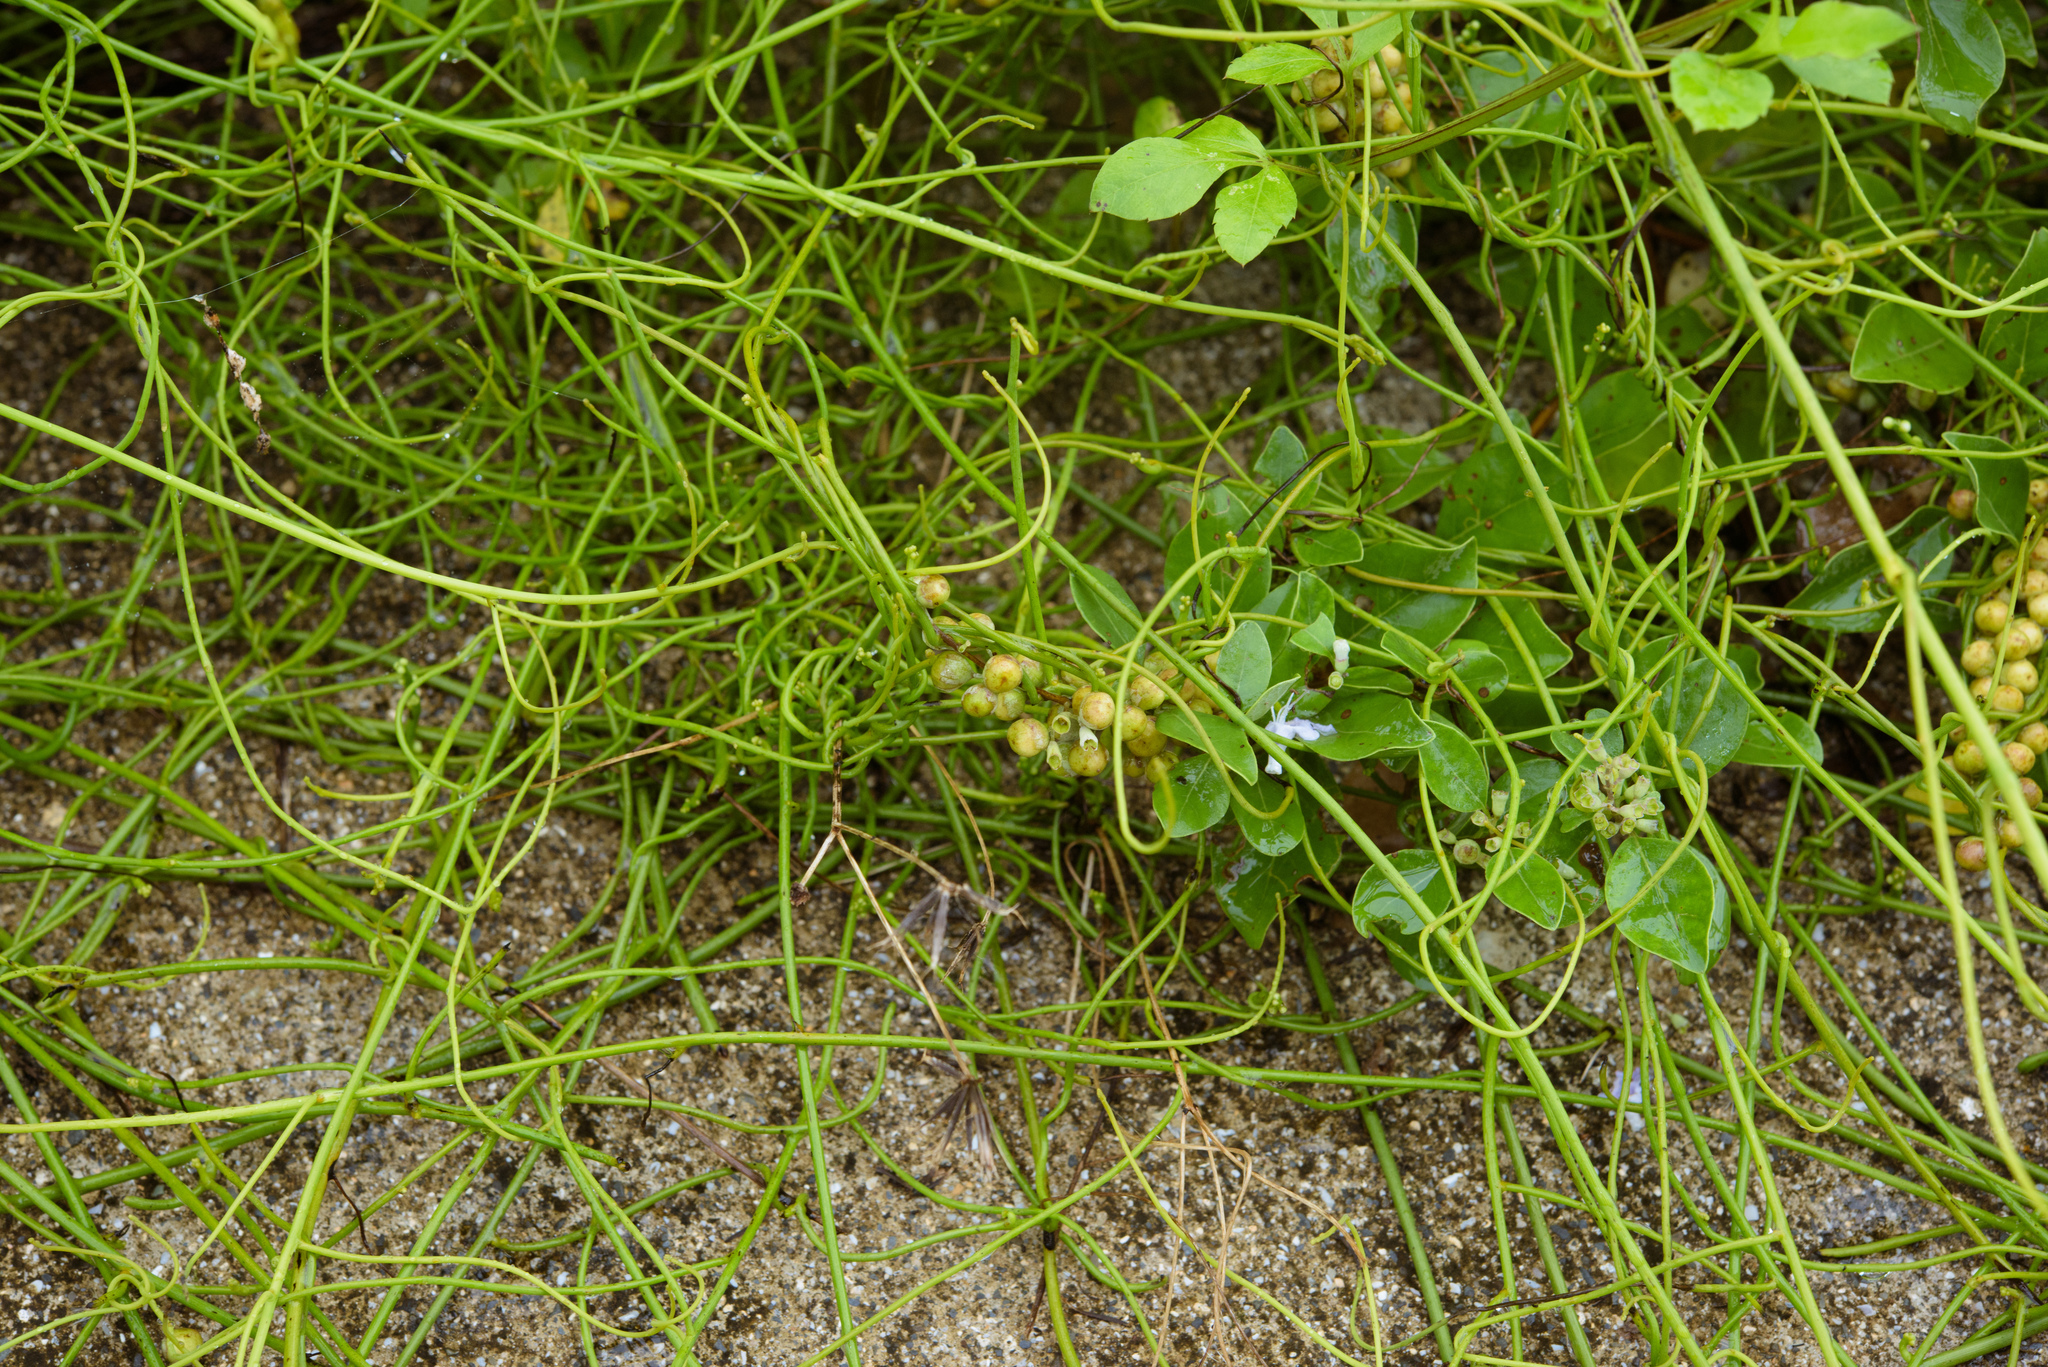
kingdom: Plantae
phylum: Tracheophyta
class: Magnoliopsida
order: Laurales
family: Lauraceae
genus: Cassytha
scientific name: Cassytha filiformis
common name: Dodder-laurel
